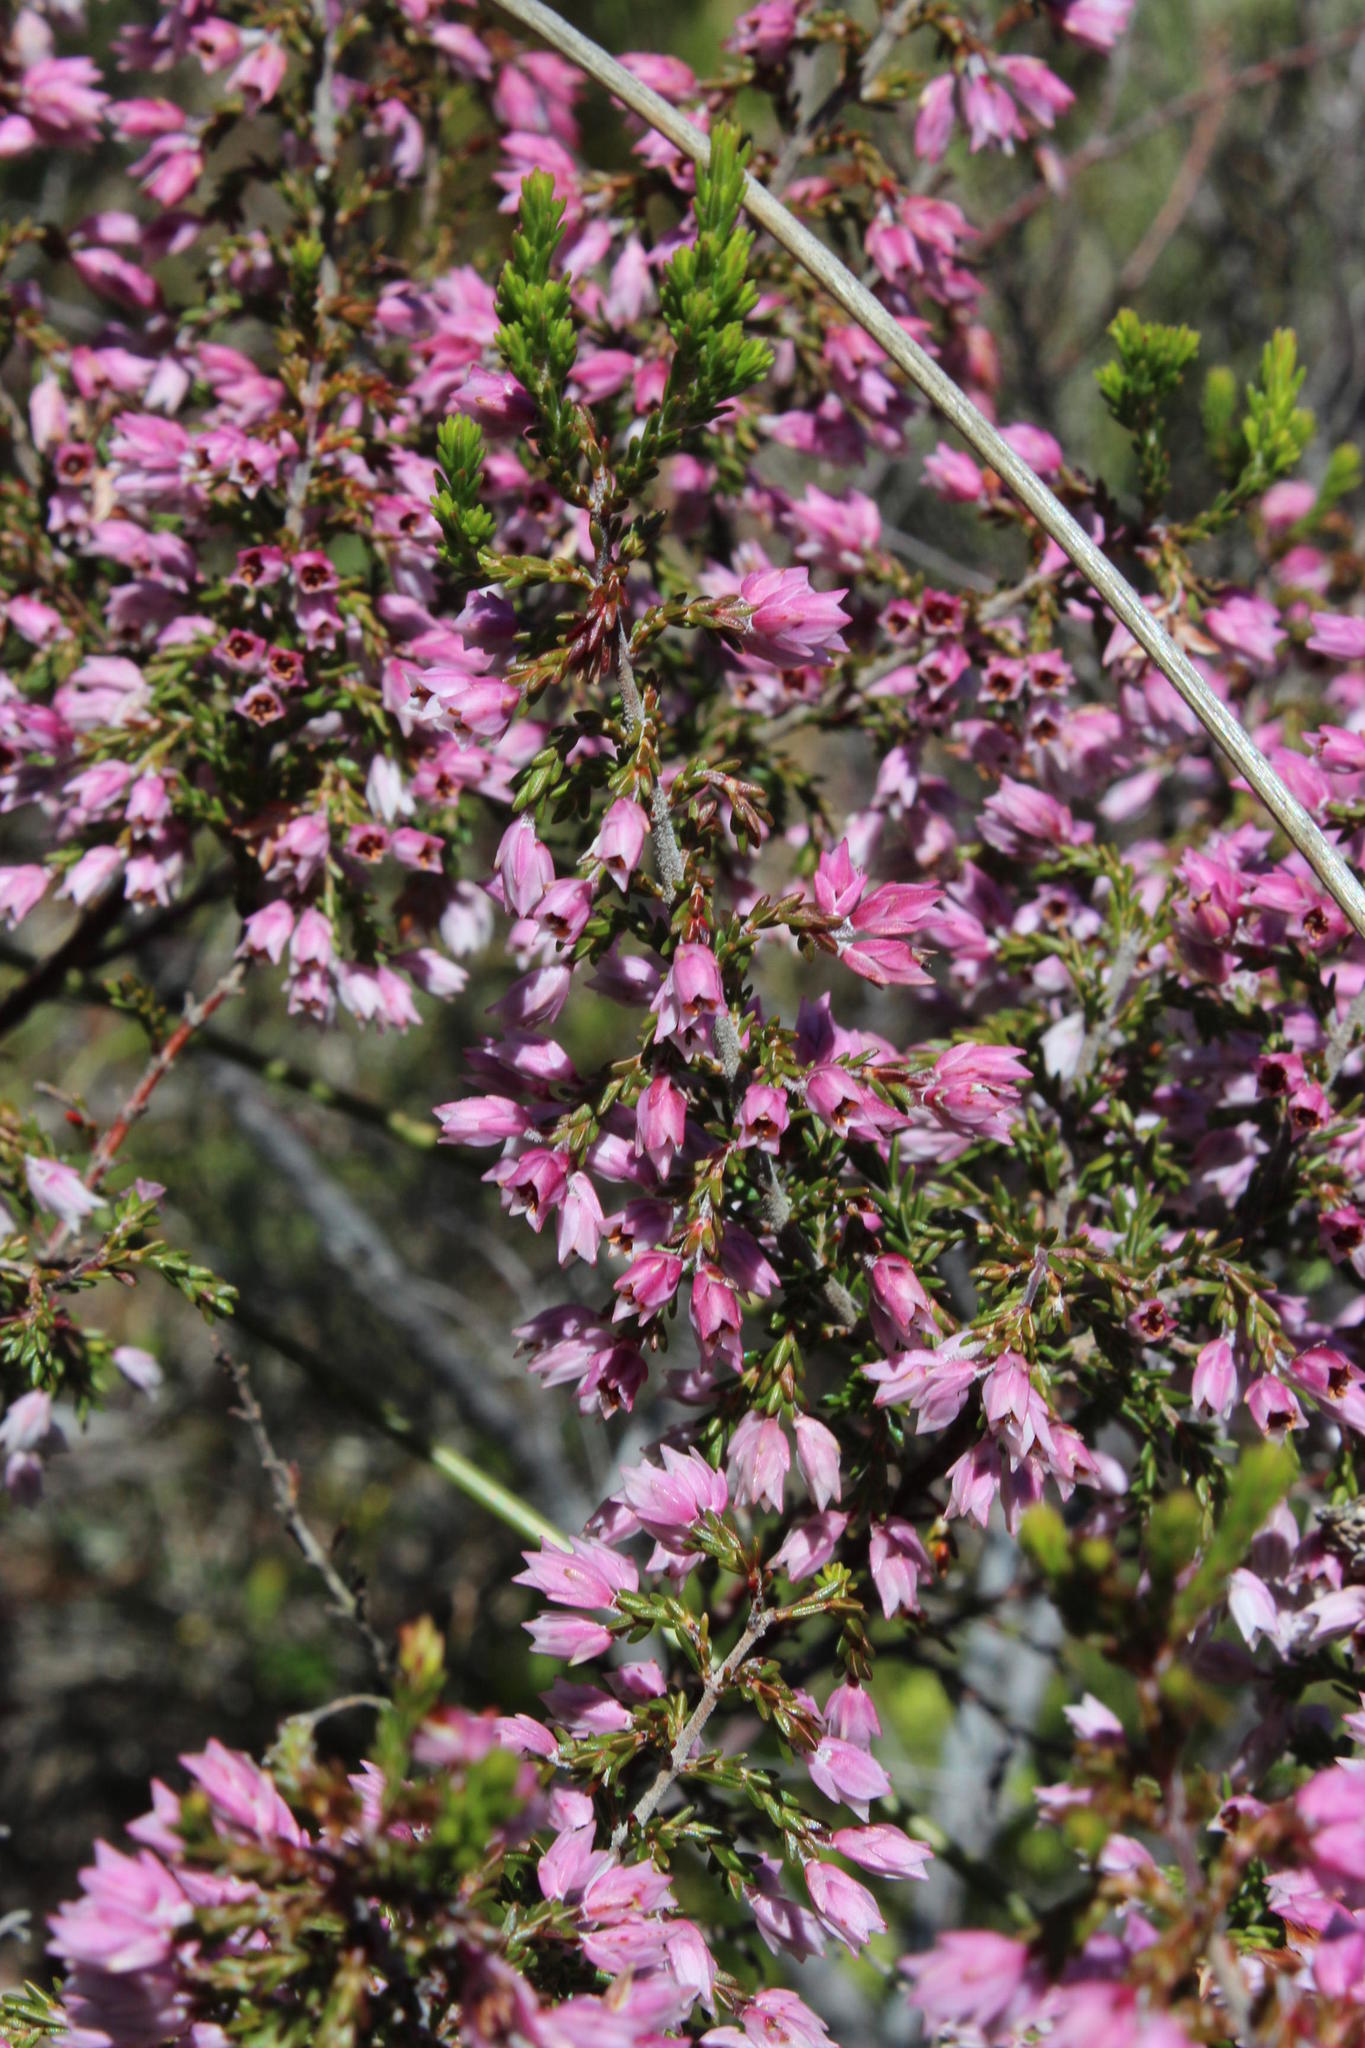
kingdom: Plantae
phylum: Tracheophyta
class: Magnoliopsida
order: Ericales
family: Ericaceae
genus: Erica
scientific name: Erica plumigera
